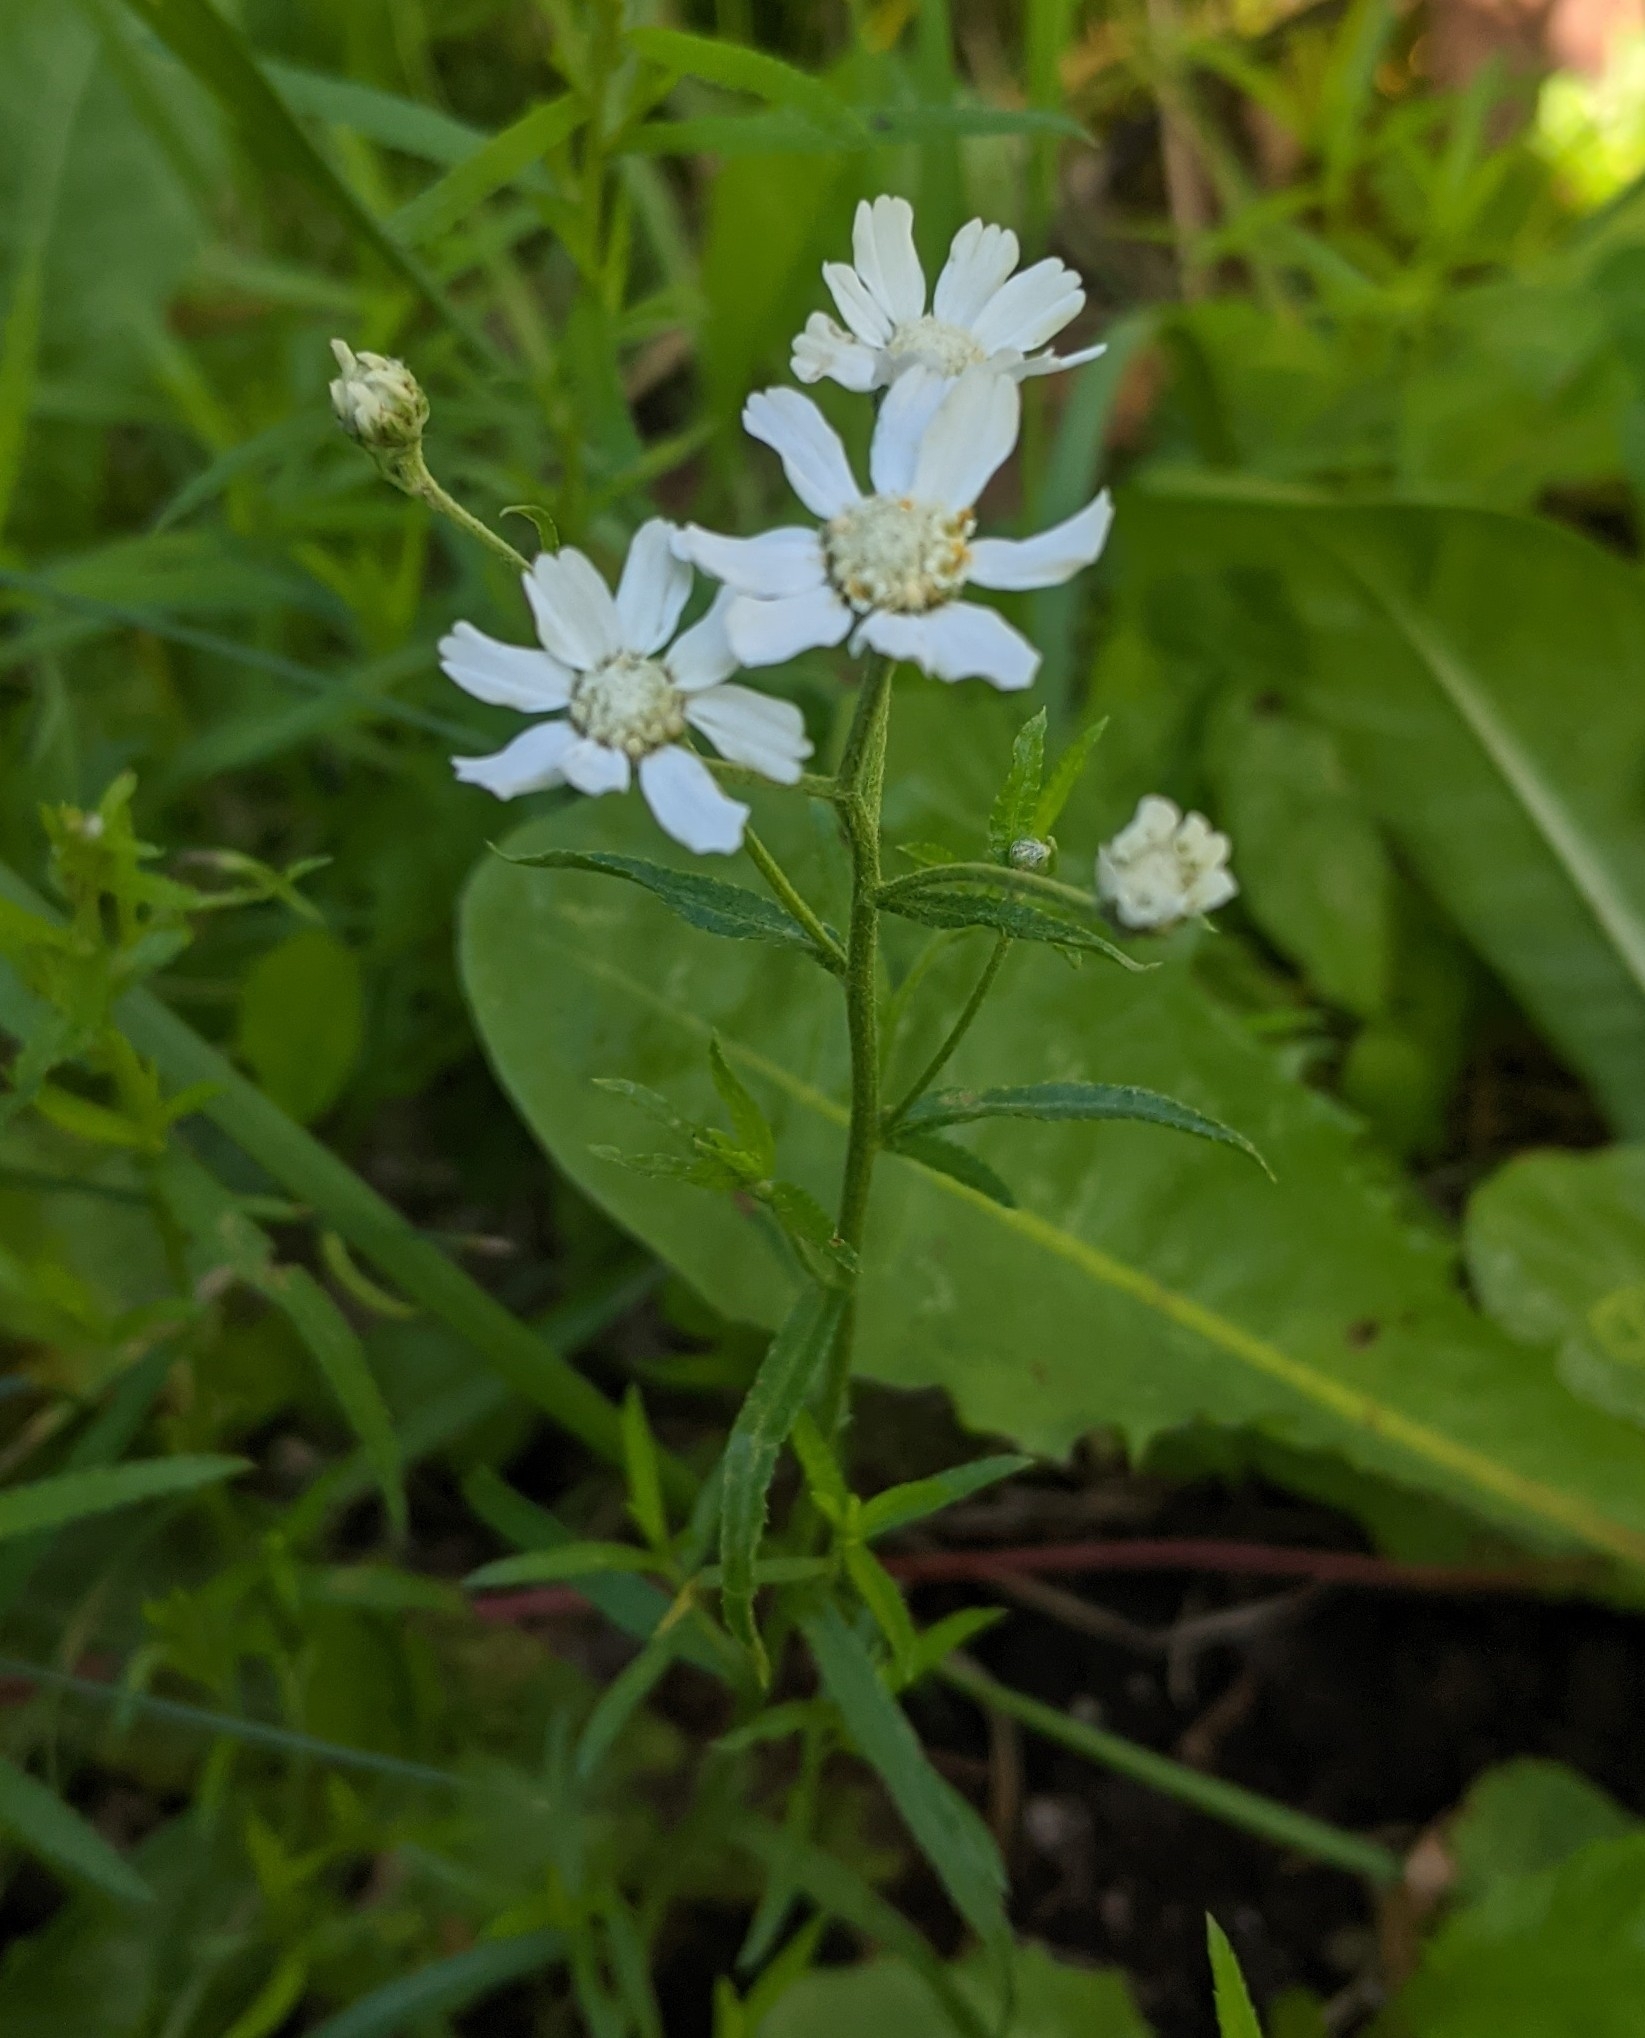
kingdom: Plantae
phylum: Tracheophyta
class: Magnoliopsida
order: Asterales
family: Asteraceae
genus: Achillea
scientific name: Achillea ptarmica
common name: Sneezeweed
